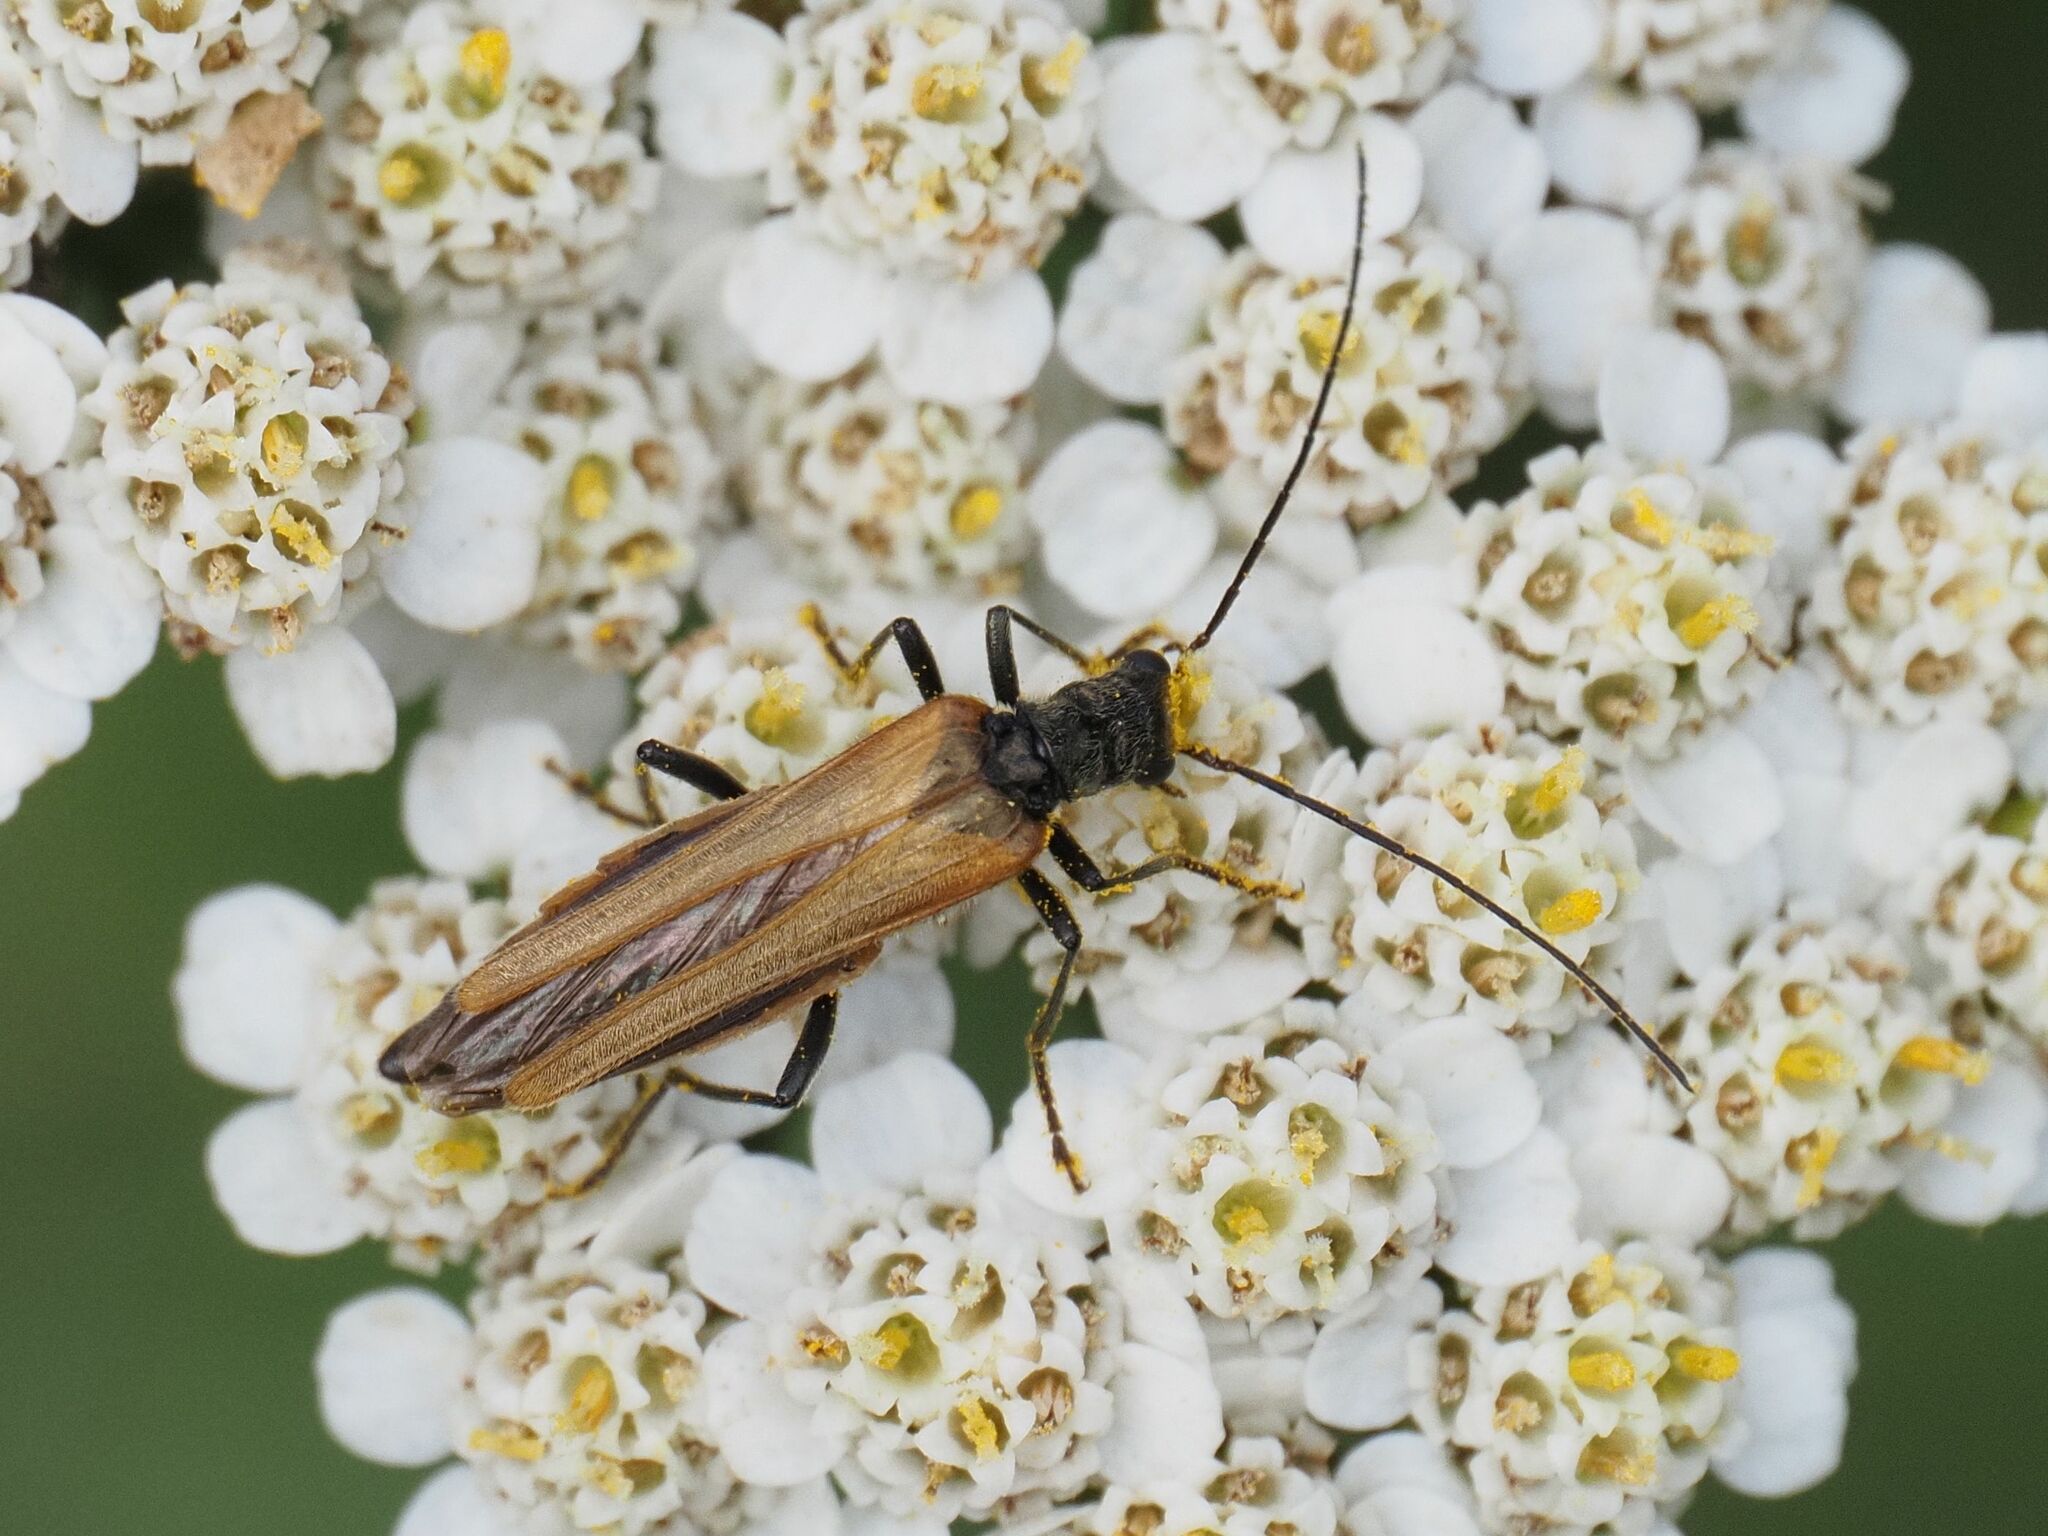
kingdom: Animalia
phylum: Arthropoda
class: Insecta
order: Coleoptera
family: Oedemeridae
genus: Oedemera
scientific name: Oedemera femorata
